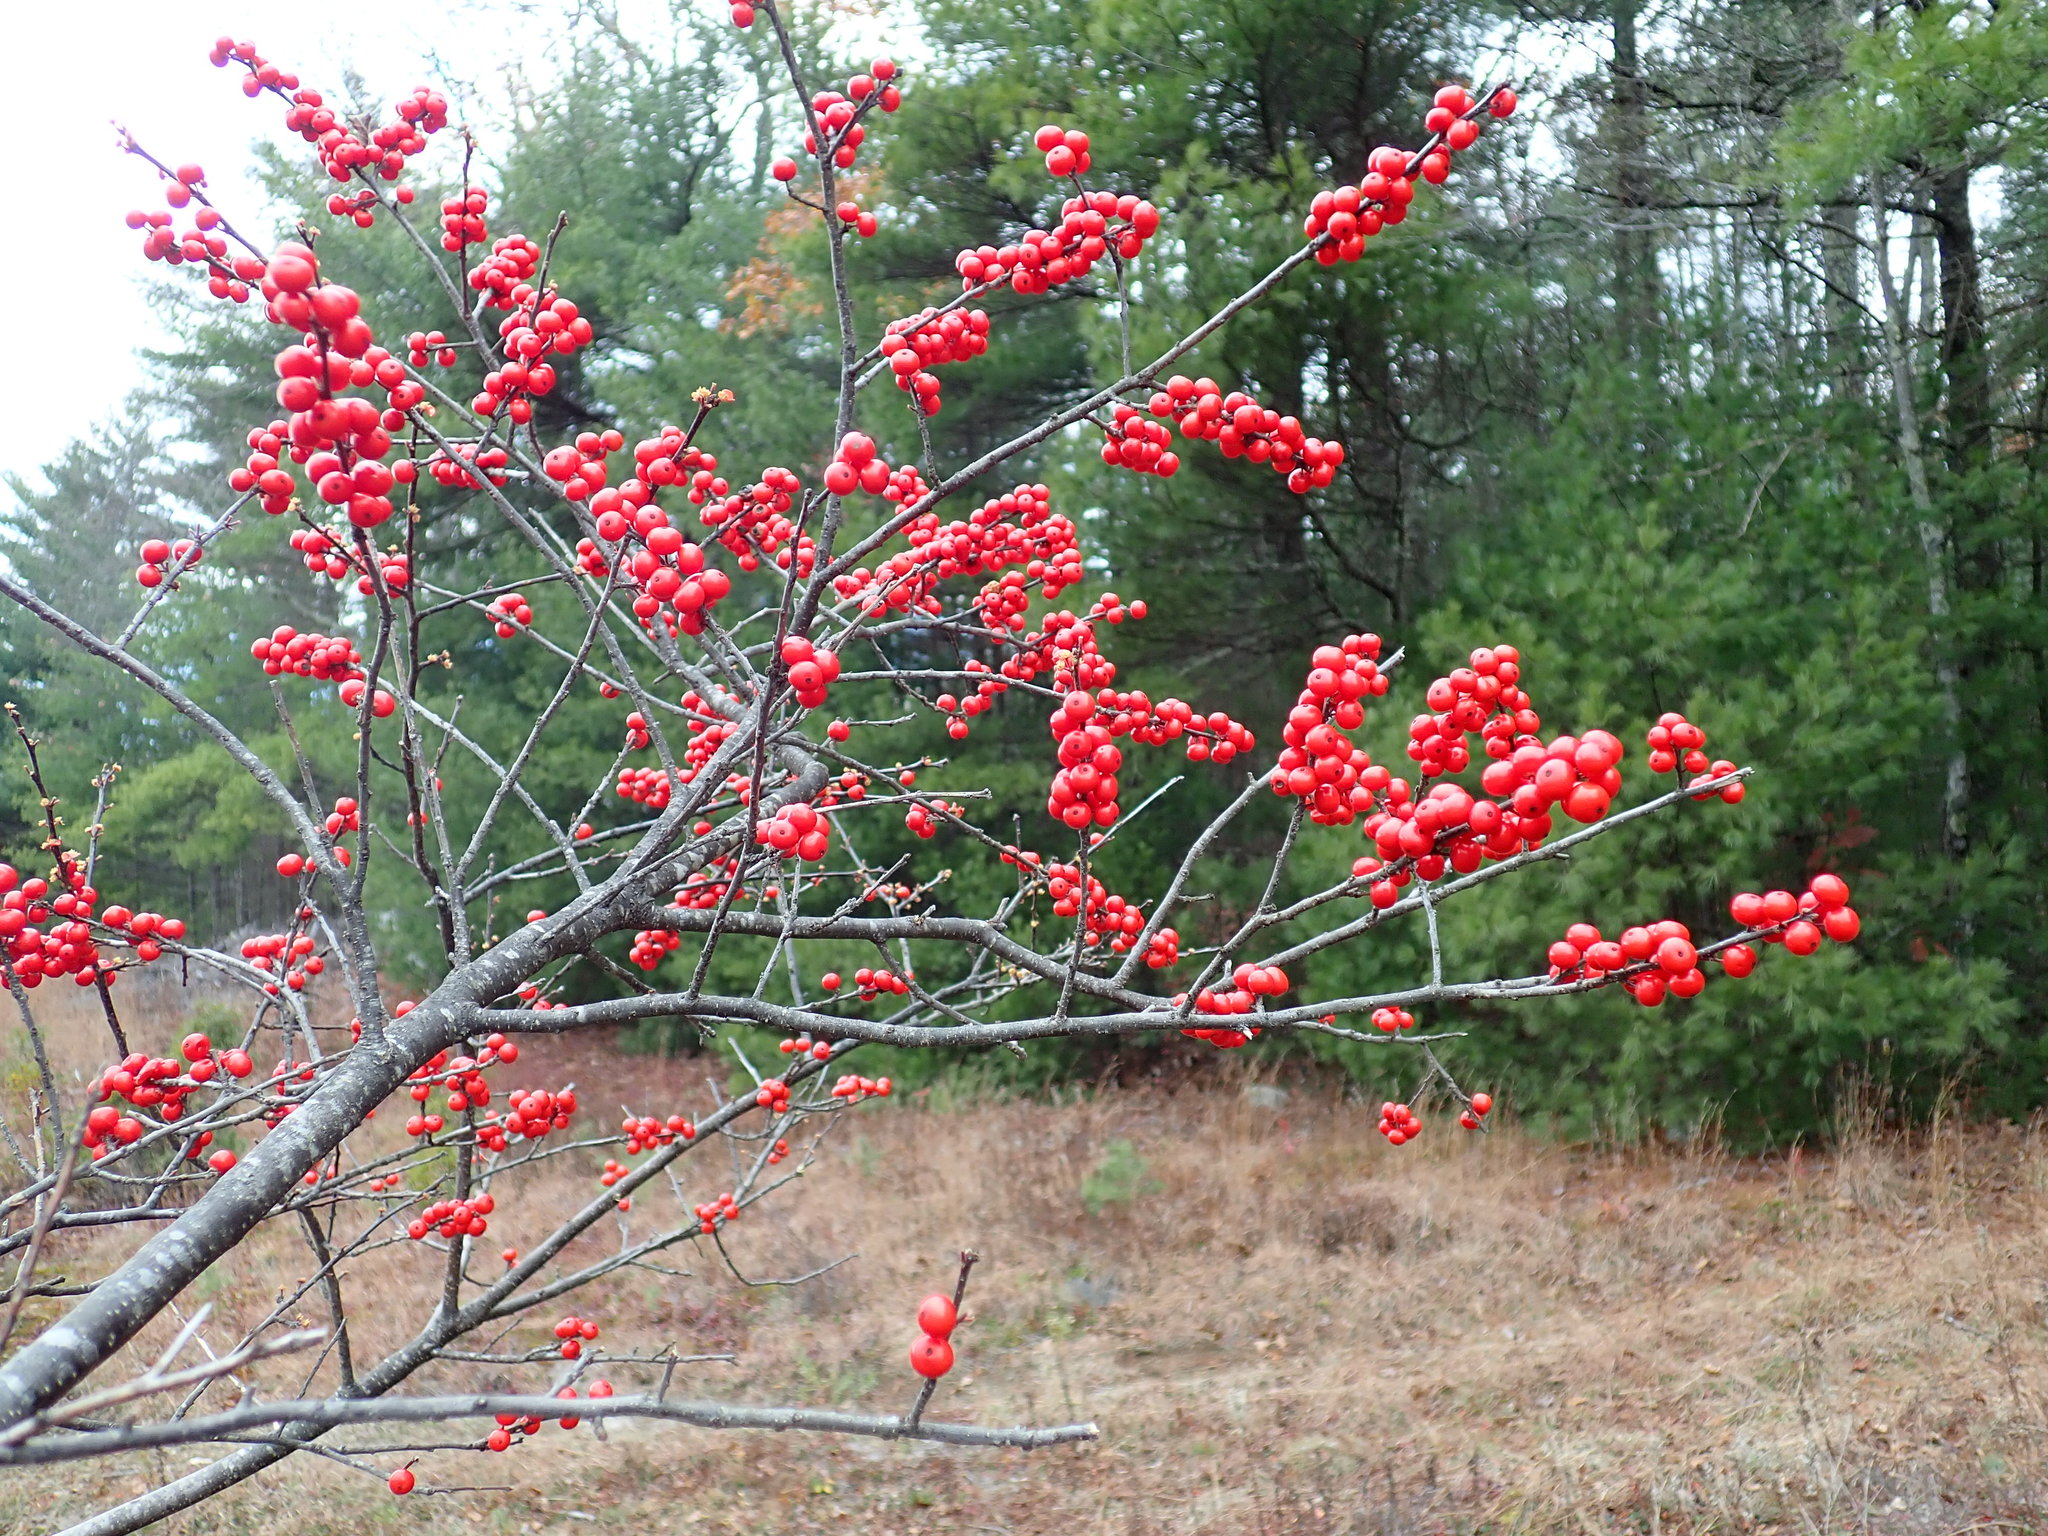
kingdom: Plantae
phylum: Tracheophyta
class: Magnoliopsida
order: Aquifoliales
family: Aquifoliaceae
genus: Ilex
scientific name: Ilex verticillata
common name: Virginia winterberry
